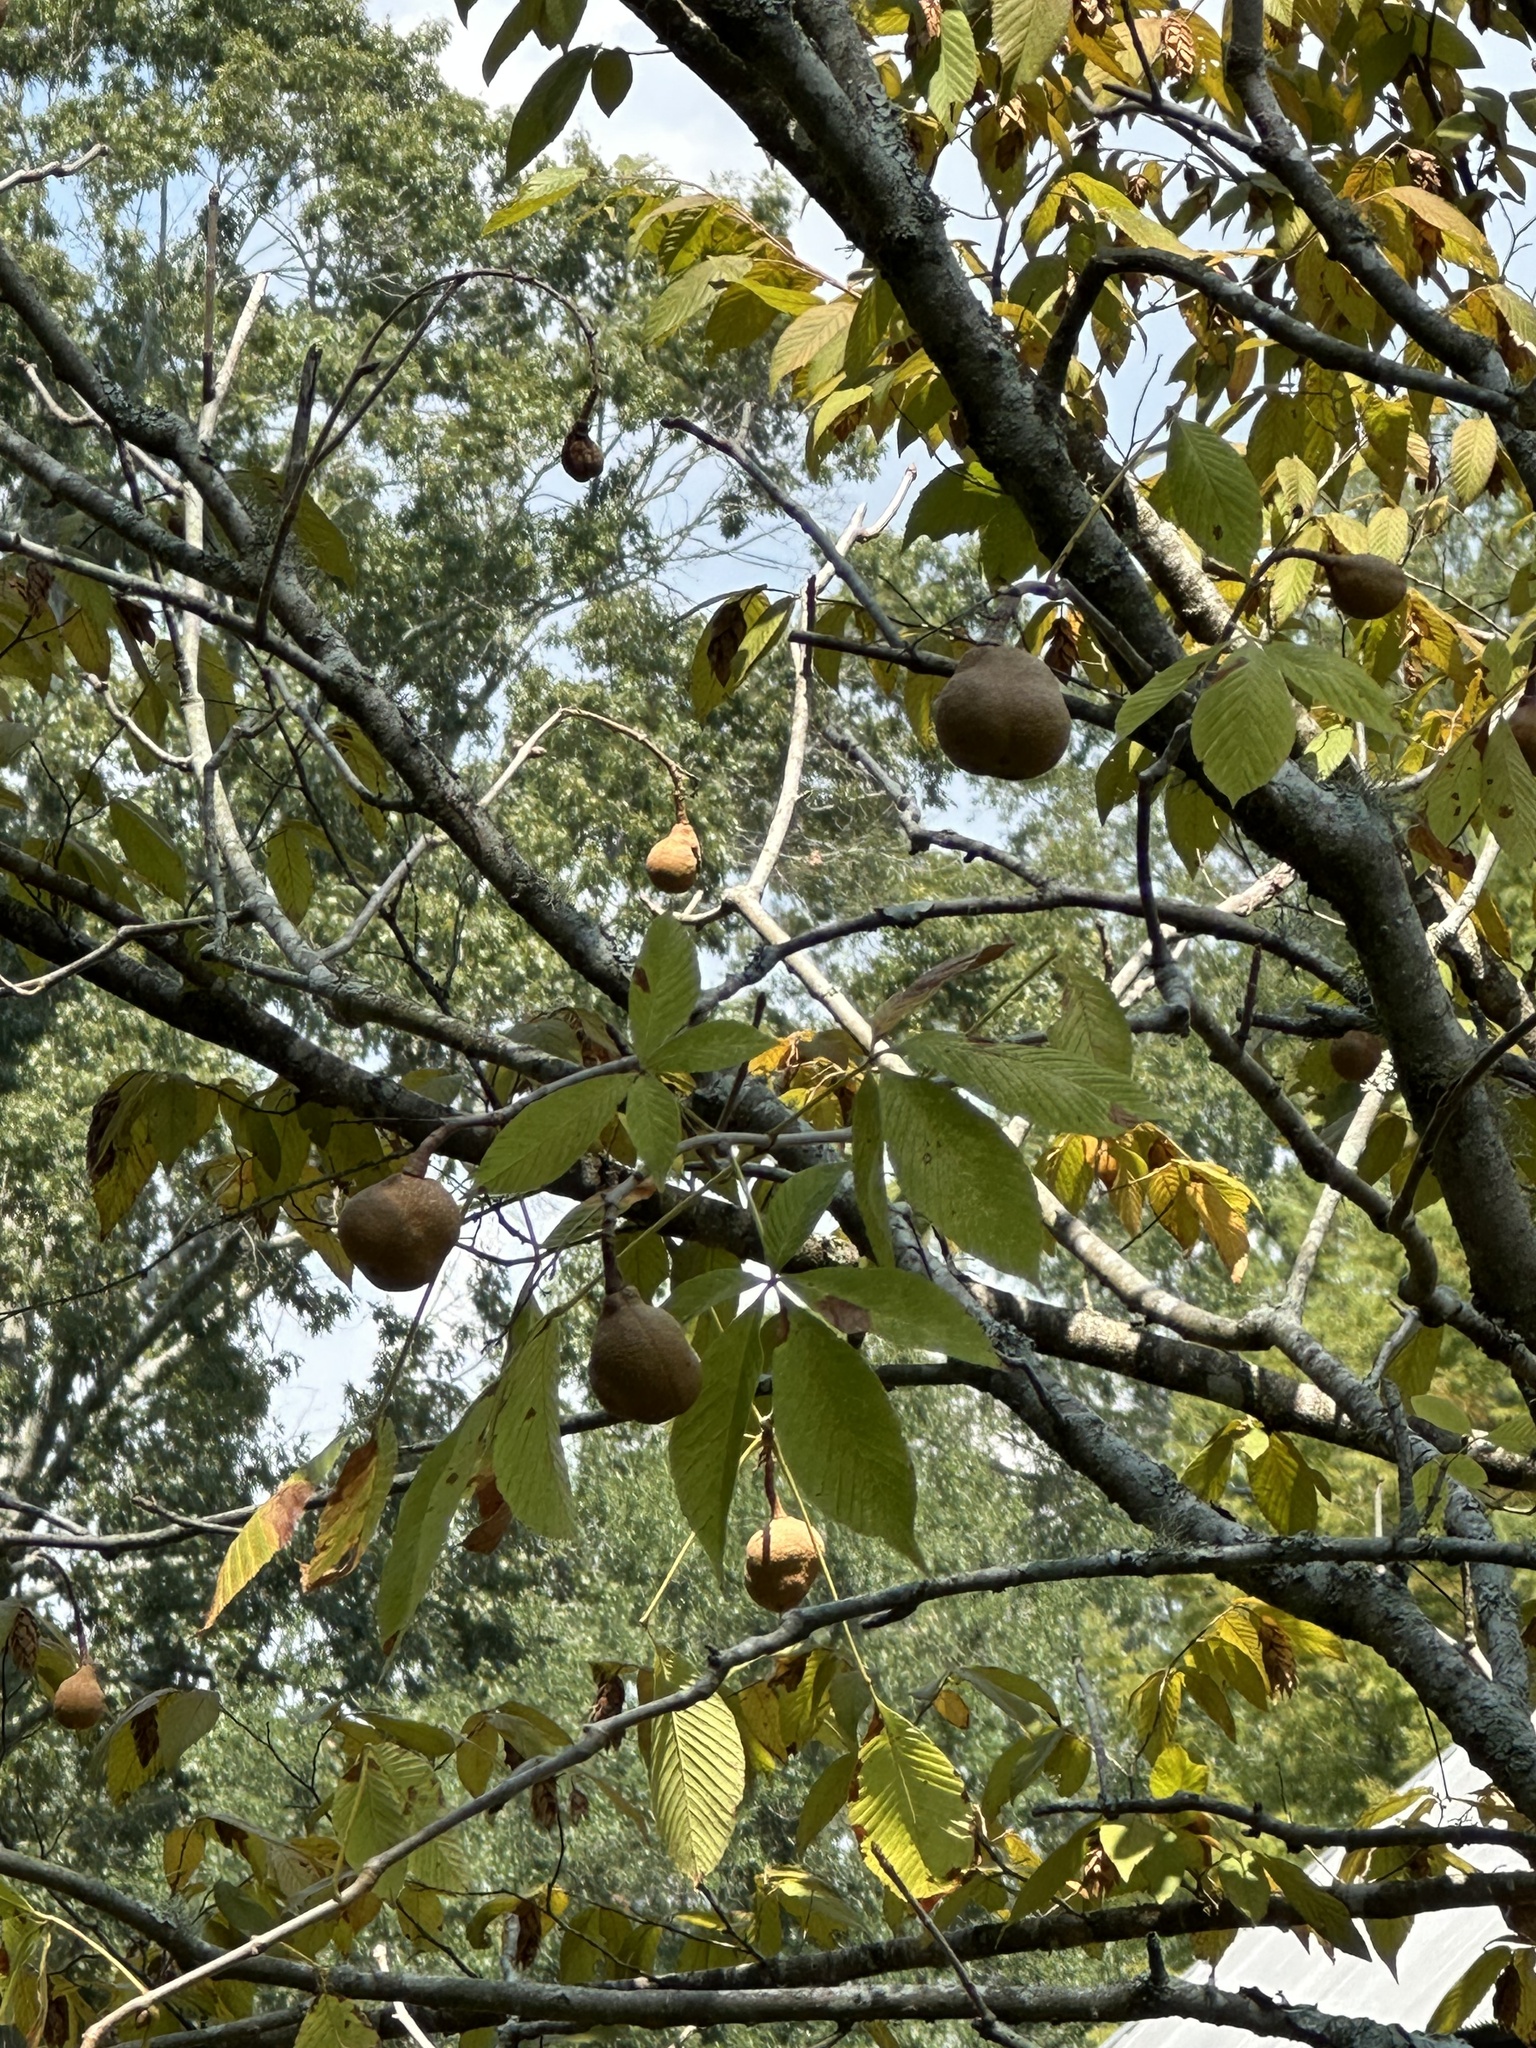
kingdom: Plantae
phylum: Tracheophyta
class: Magnoliopsida
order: Sapindales
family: Sapindaceae
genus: Aesculus
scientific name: Aesculus pavia
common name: Red buckeye
